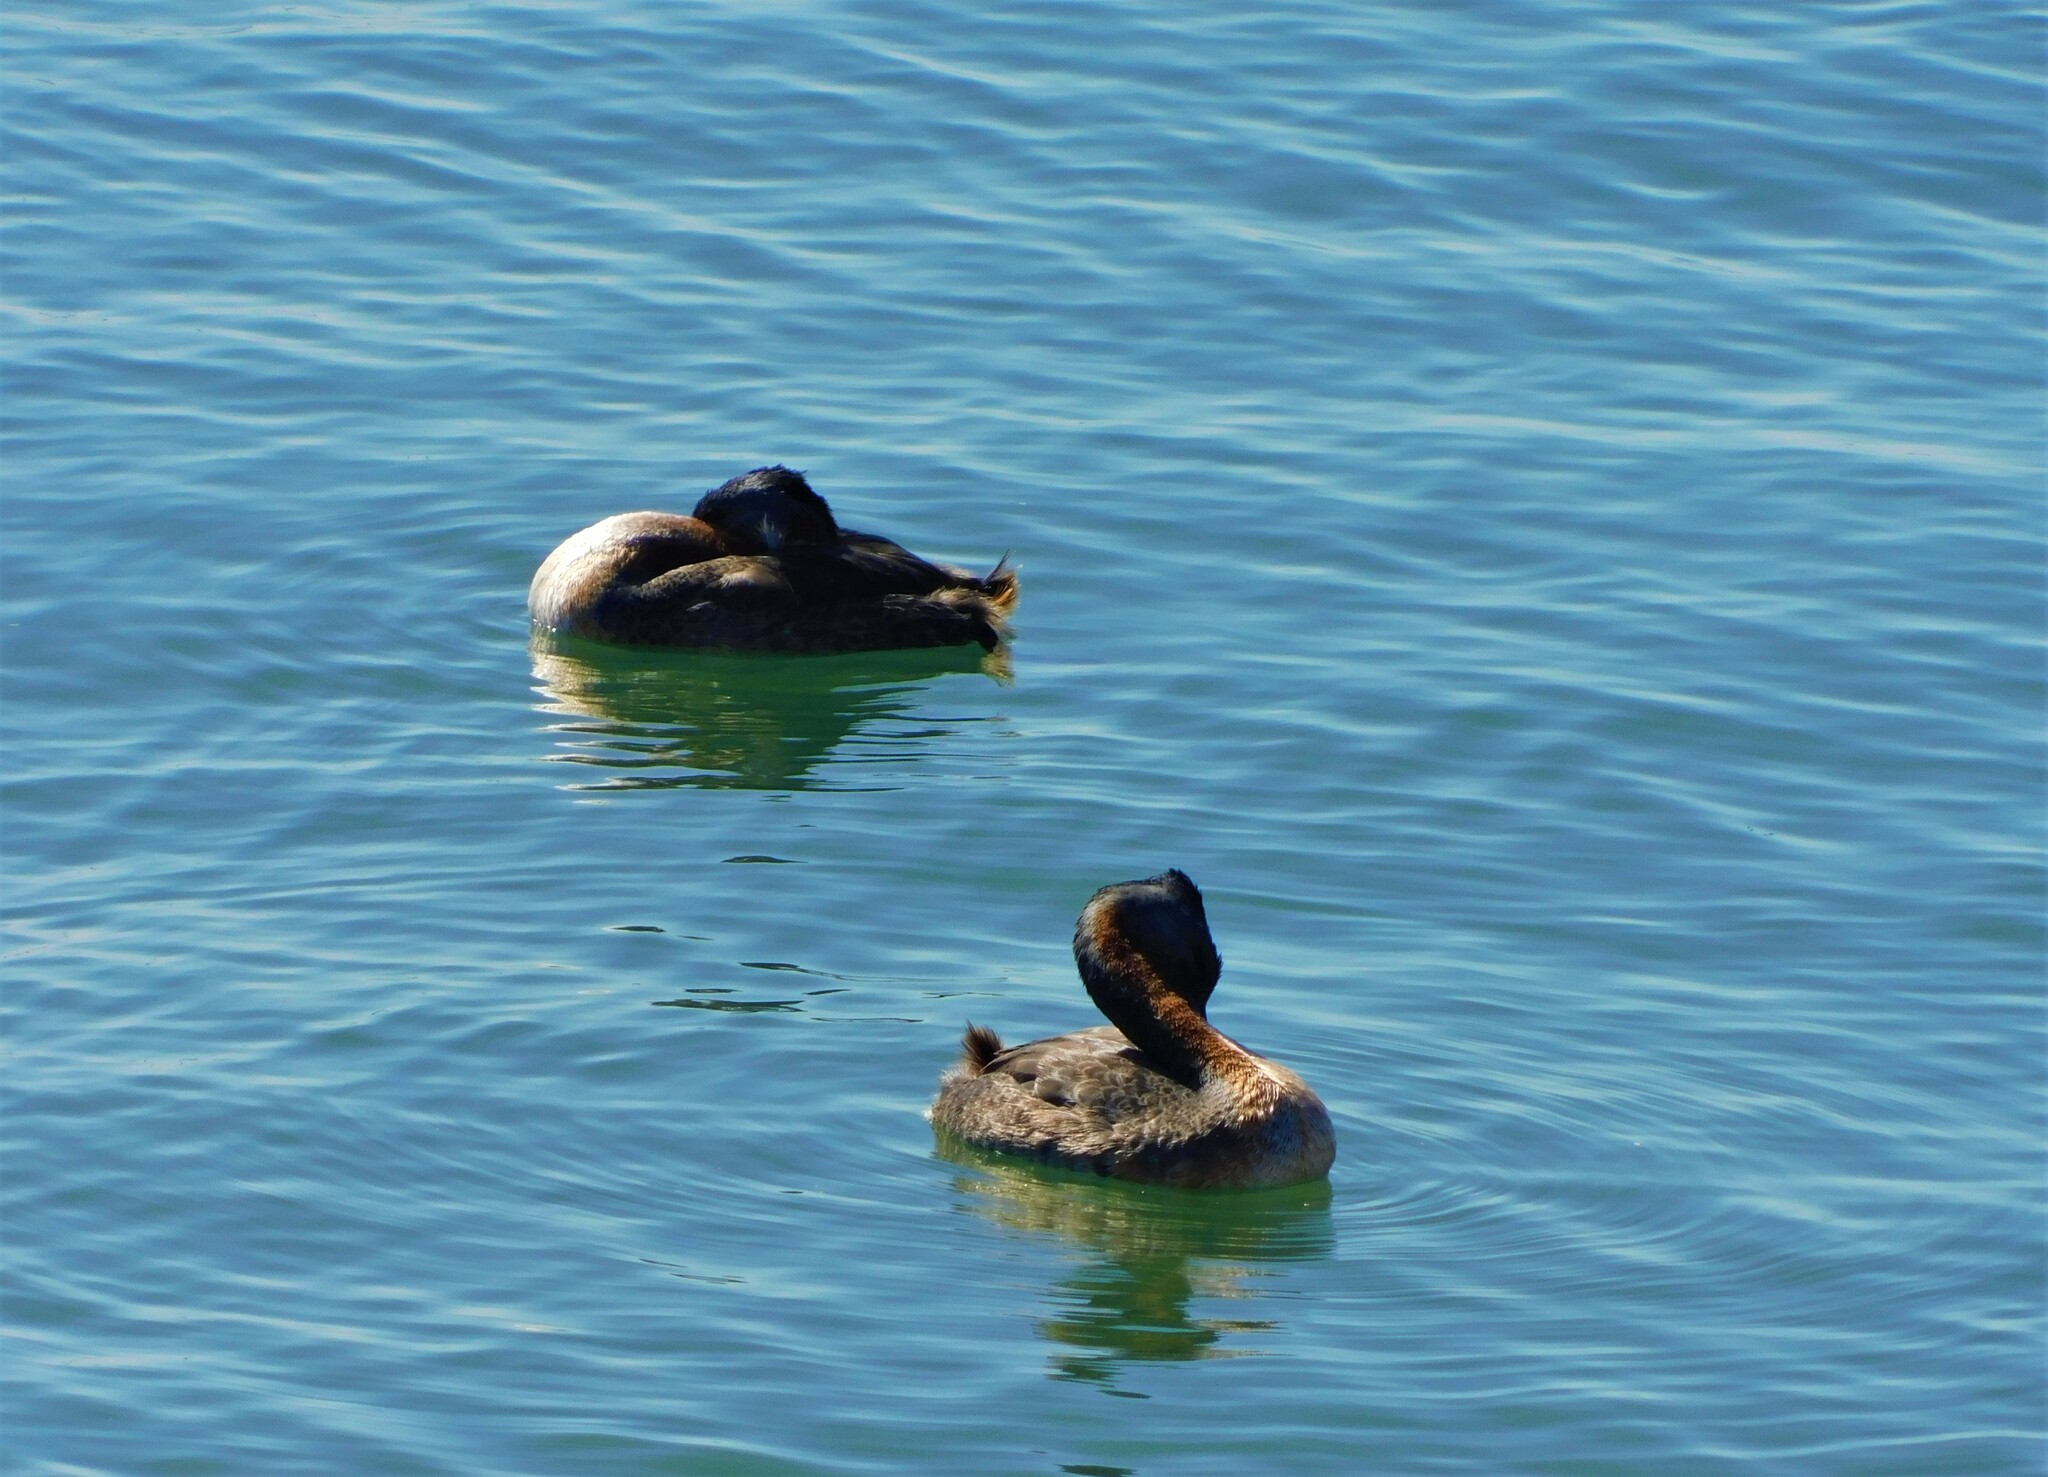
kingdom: Animalia
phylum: Chordata
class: Aves
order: Podicipediformes
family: Podicipedidae
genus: Podiceps
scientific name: Podiceps major
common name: Great grebe
